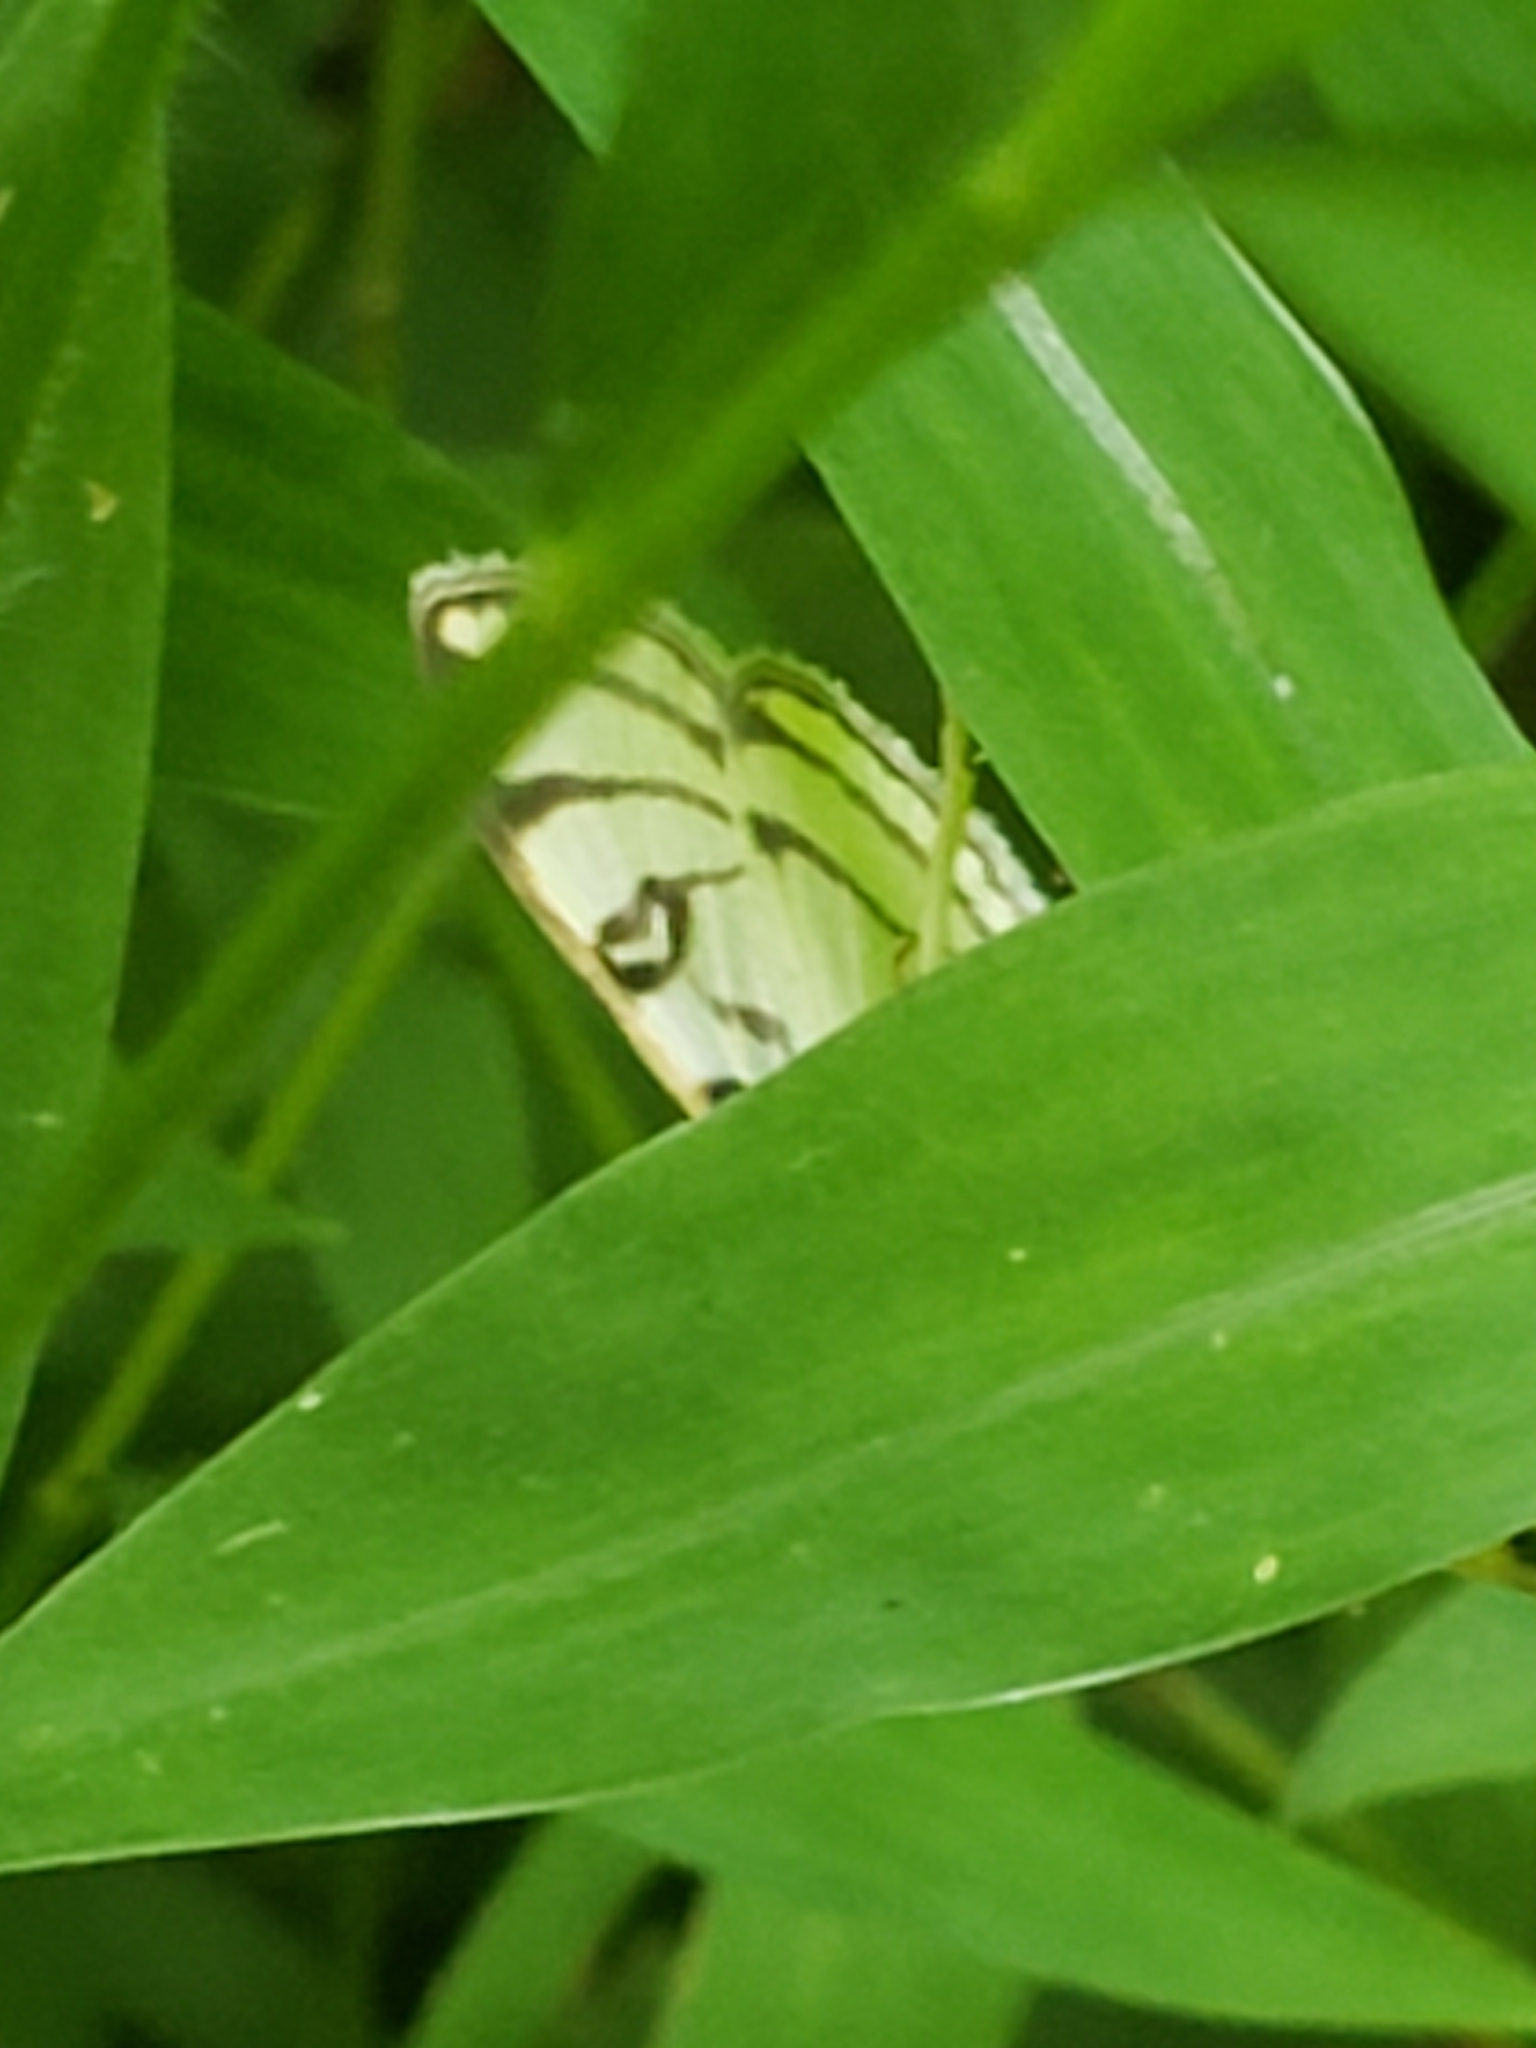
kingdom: Animalia
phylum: Arthropoda
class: Insecta
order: Lepidoptera
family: Crambidae
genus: Conchylodes
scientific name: Conchylodes ovulalis
